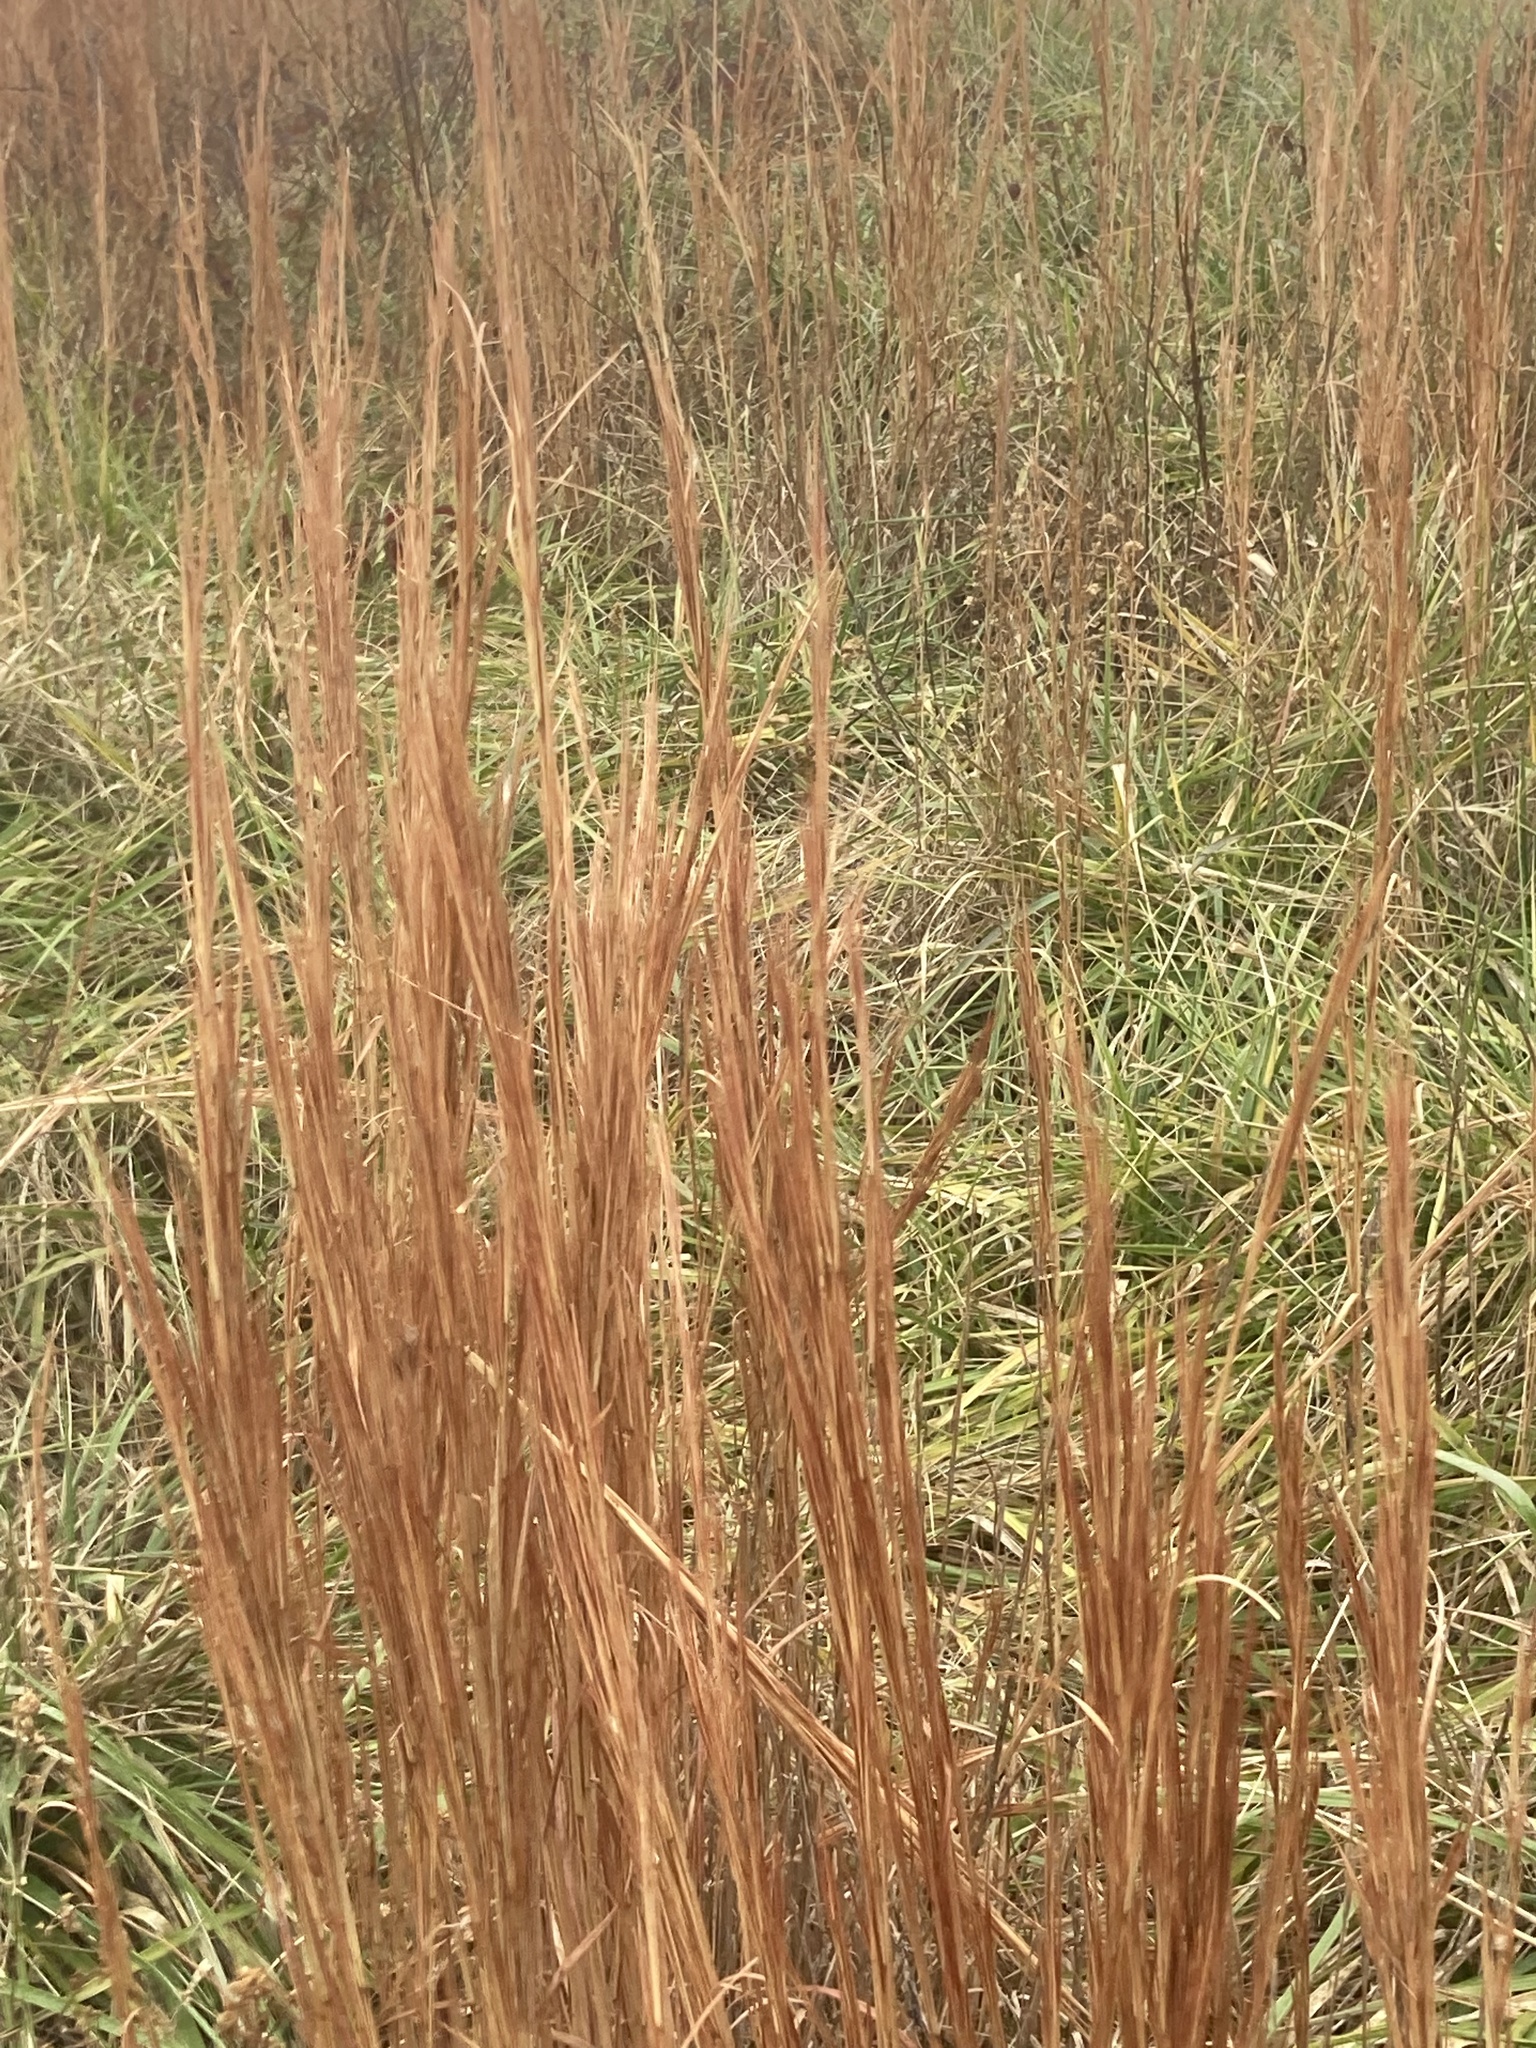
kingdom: Plantae
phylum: Tracheophyta
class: Liliopsida
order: Poales
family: Poaceae
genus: Andropogon
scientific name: Andropogon virginicus
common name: Broomsedge bluestem
